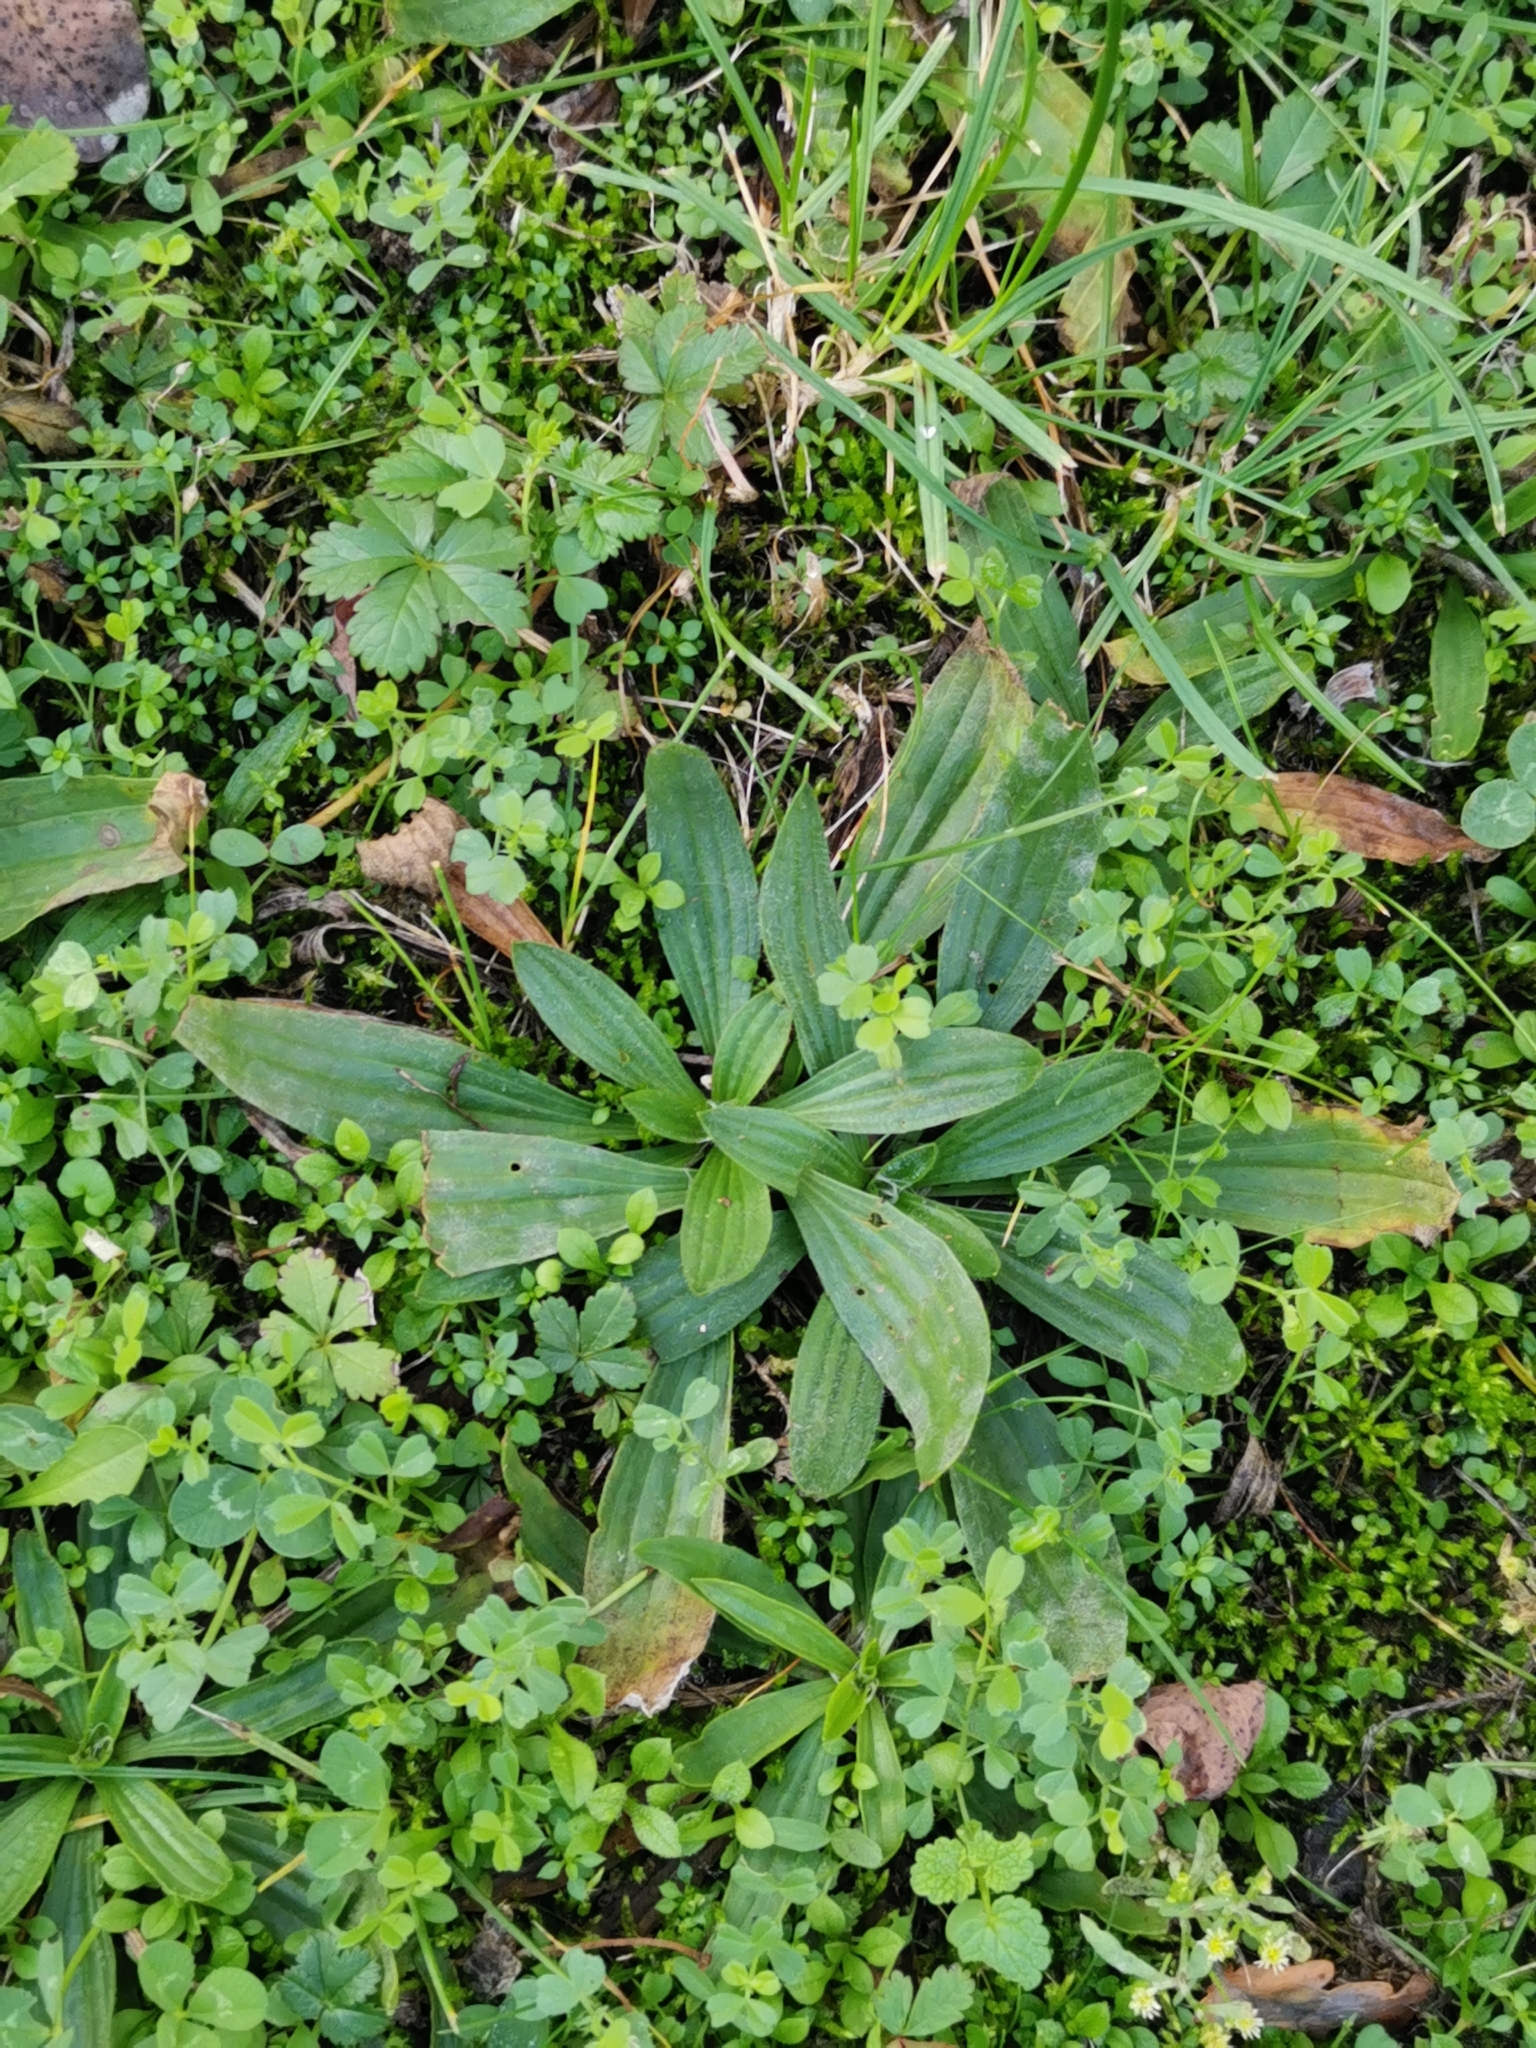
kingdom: Plantae
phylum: Tracheophyta
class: Magnoliopsida
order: Lamiales
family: Plantaginaceae
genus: Plantago
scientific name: Plantago lanceolata
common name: Ribwort plantain
